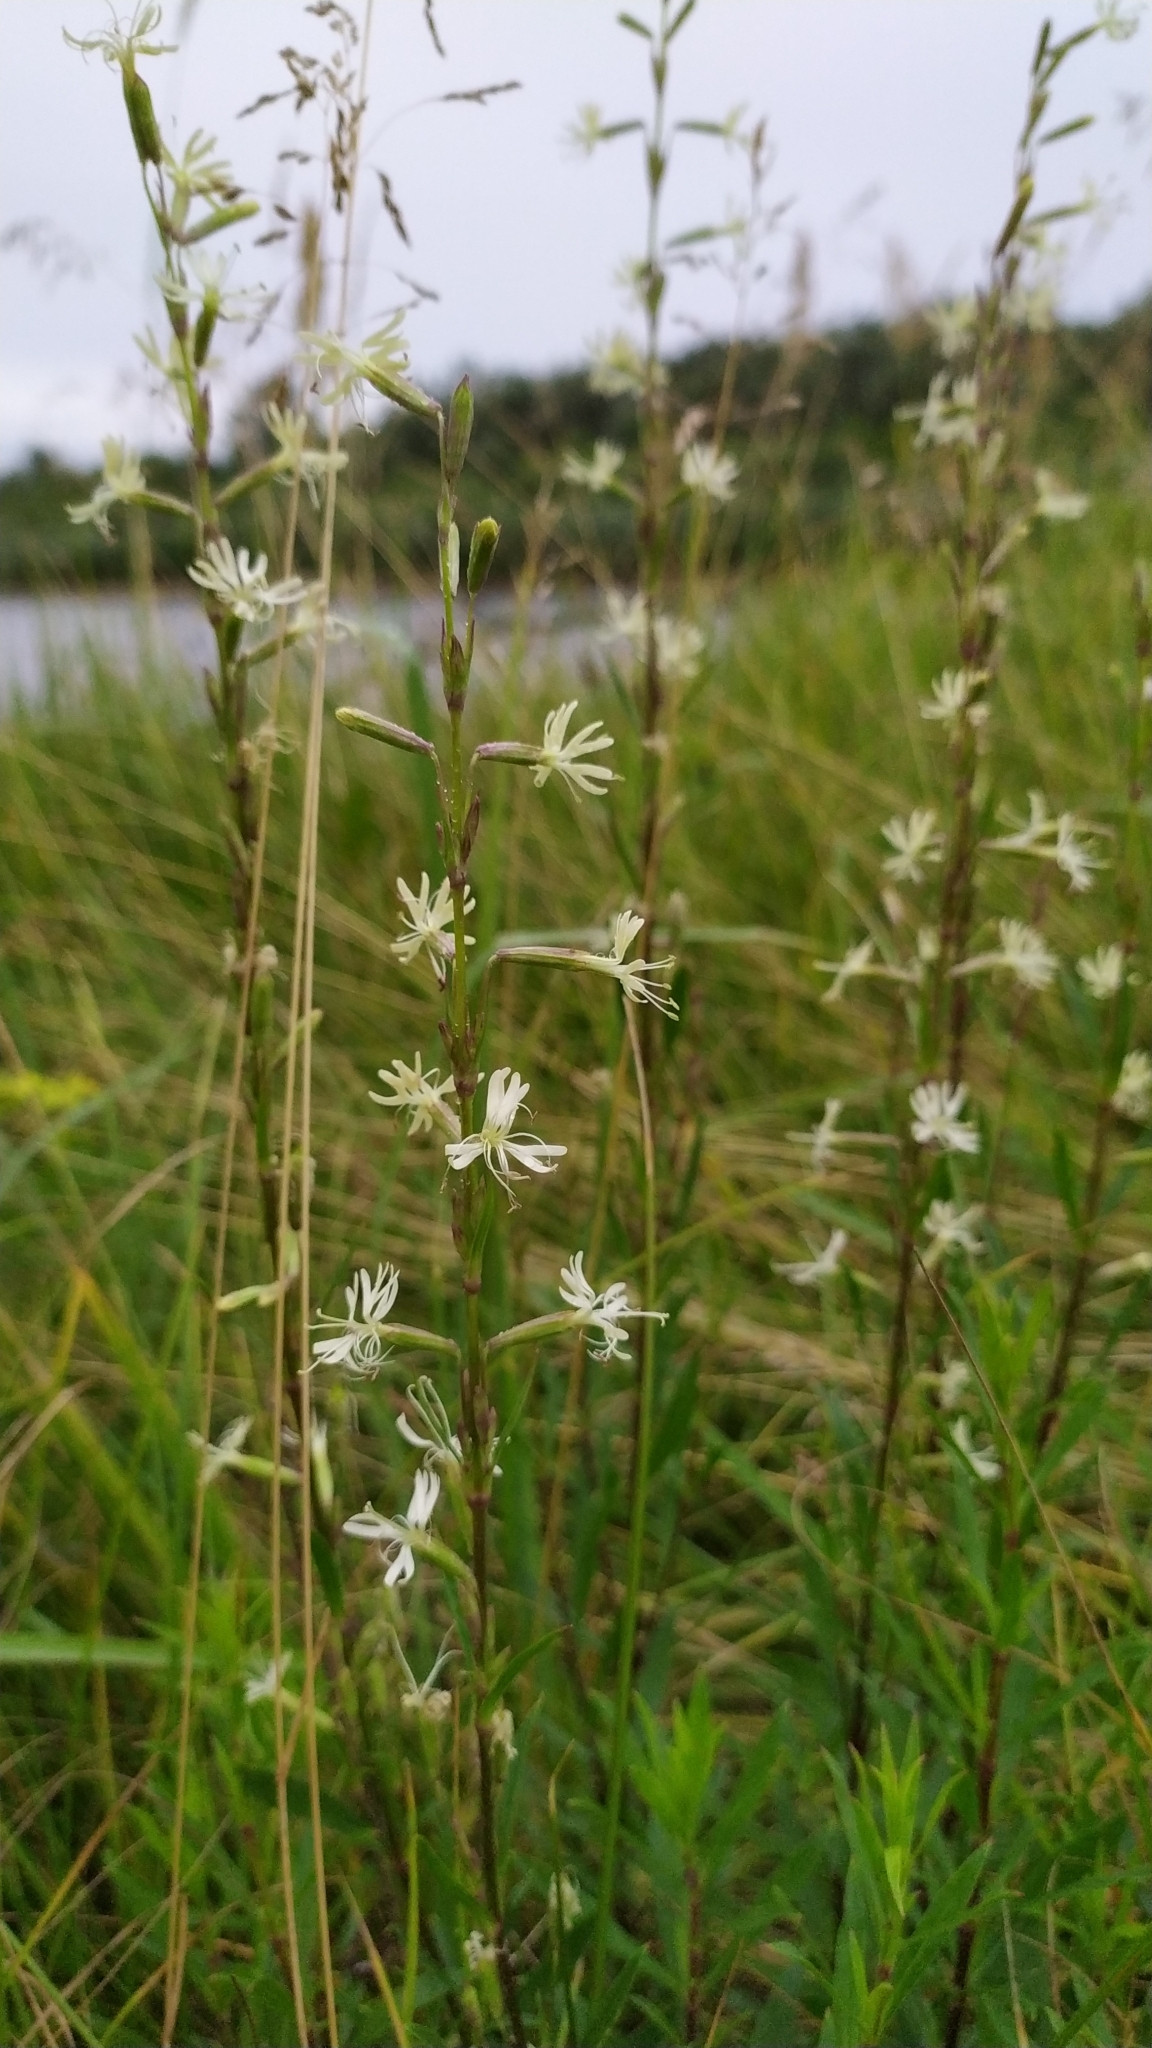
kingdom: Plantae
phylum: Tracheophyta
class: Magnoliopsida
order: Caryophyllales
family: Caryophyllaceae
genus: Silene
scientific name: Silene tatarica
